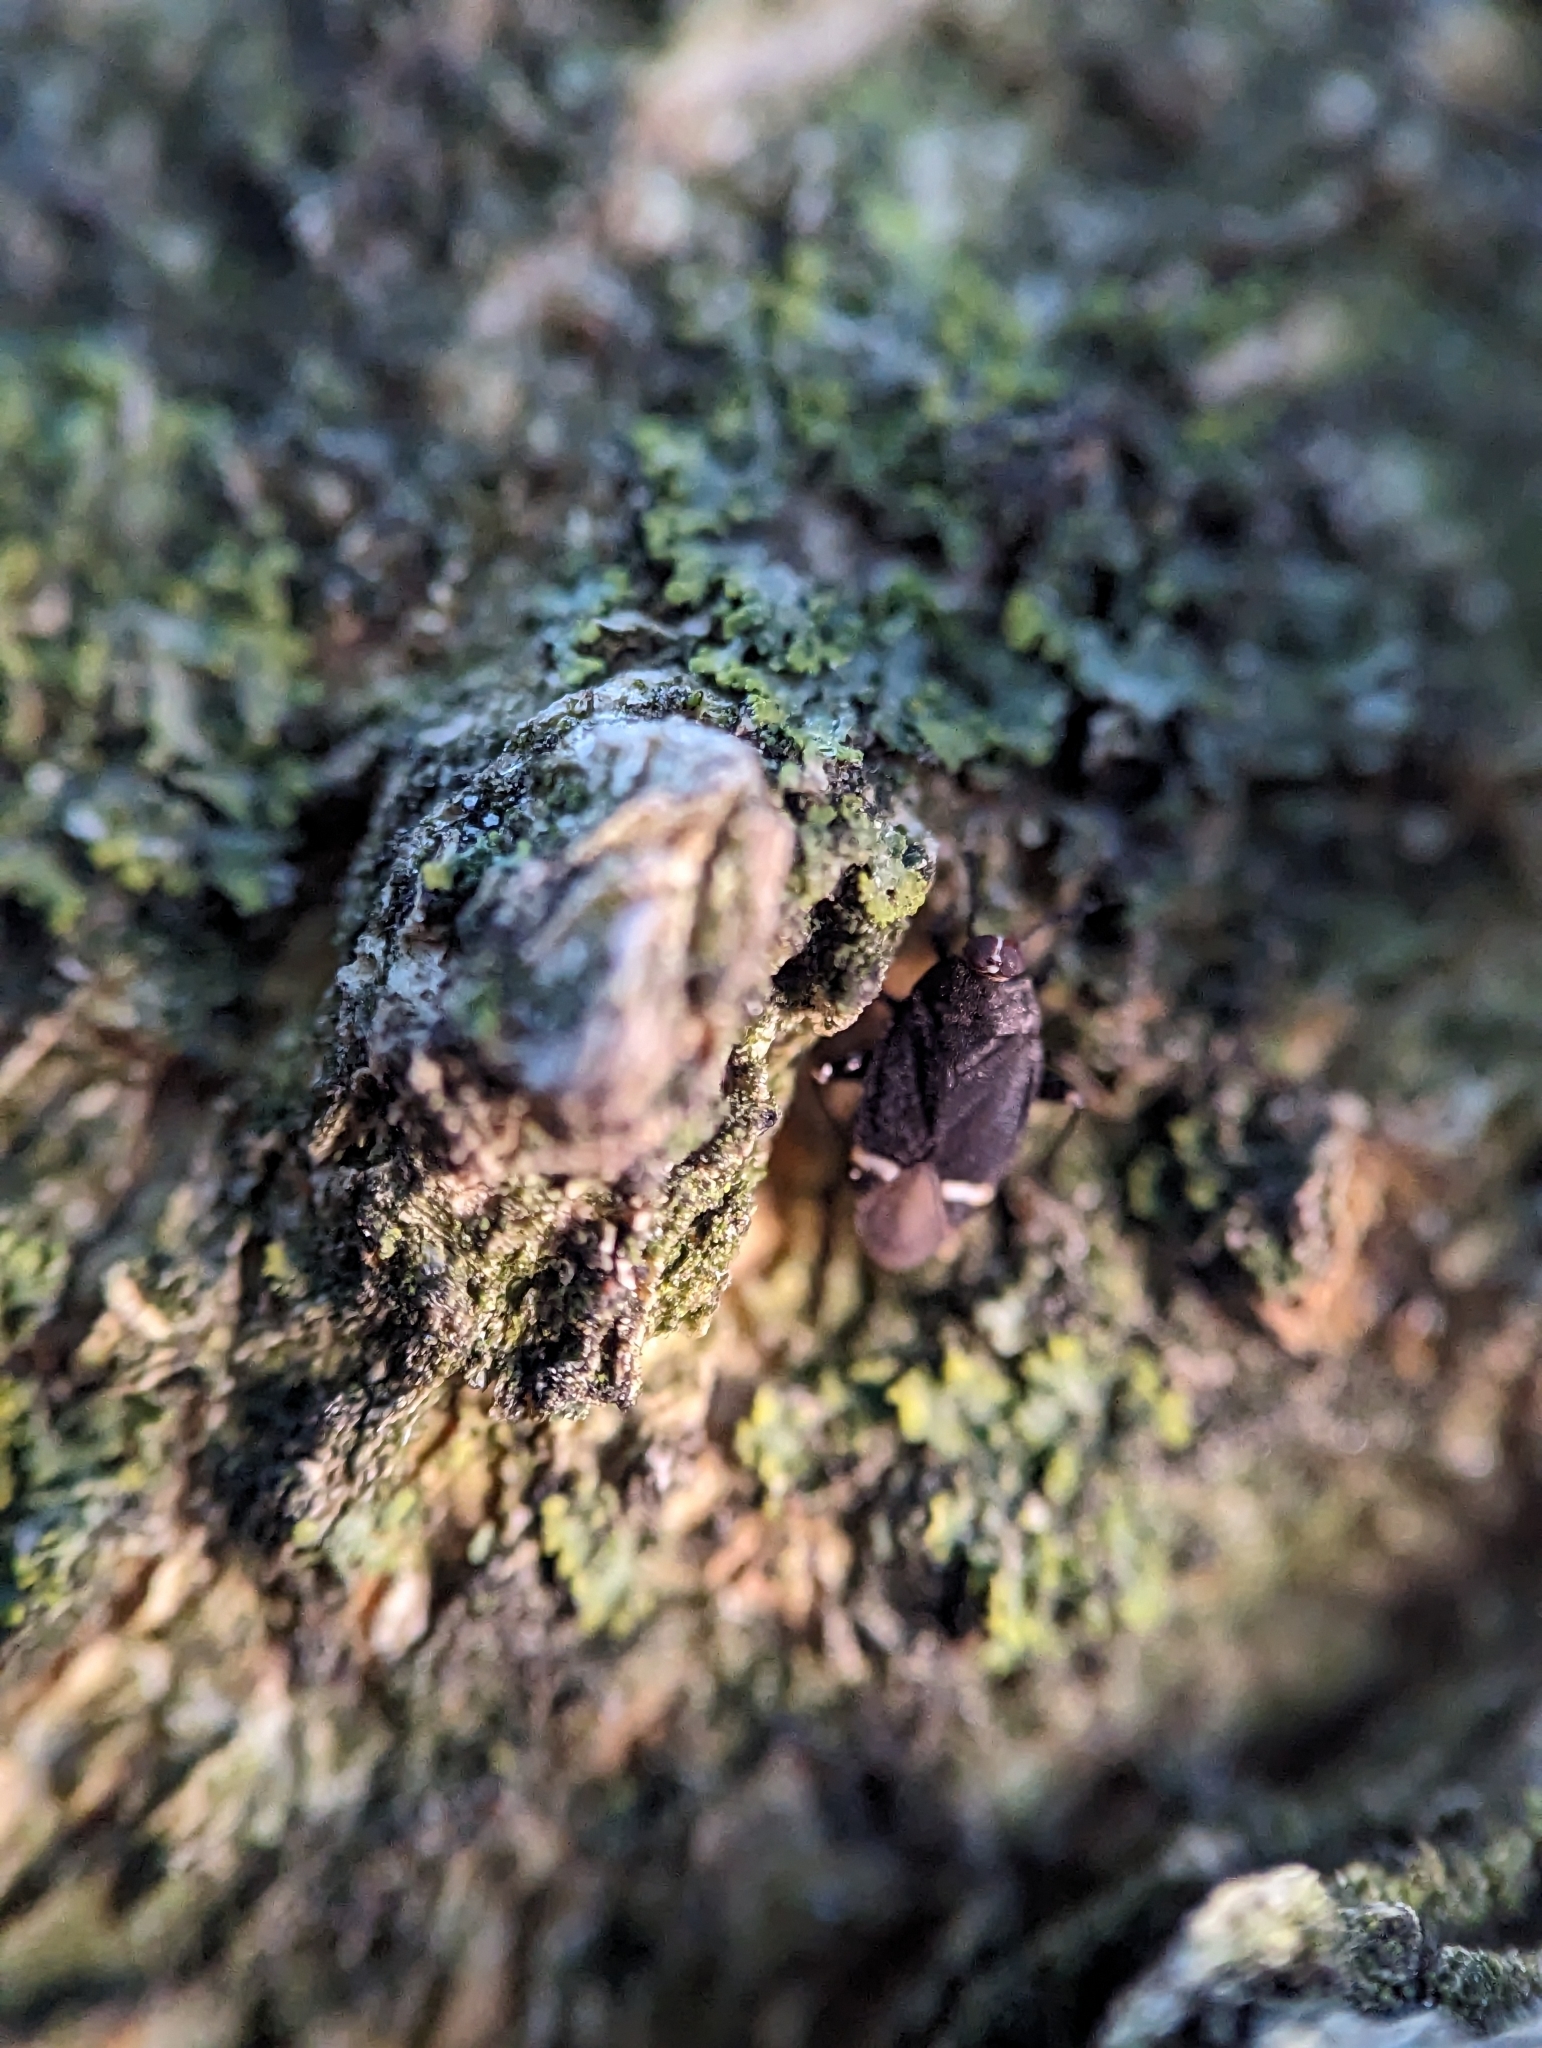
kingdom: Animalia
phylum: Arthropoda
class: Insecta
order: Hemiptera
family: Miridae
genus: Myiomma
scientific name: Myiomma cixiiforme
